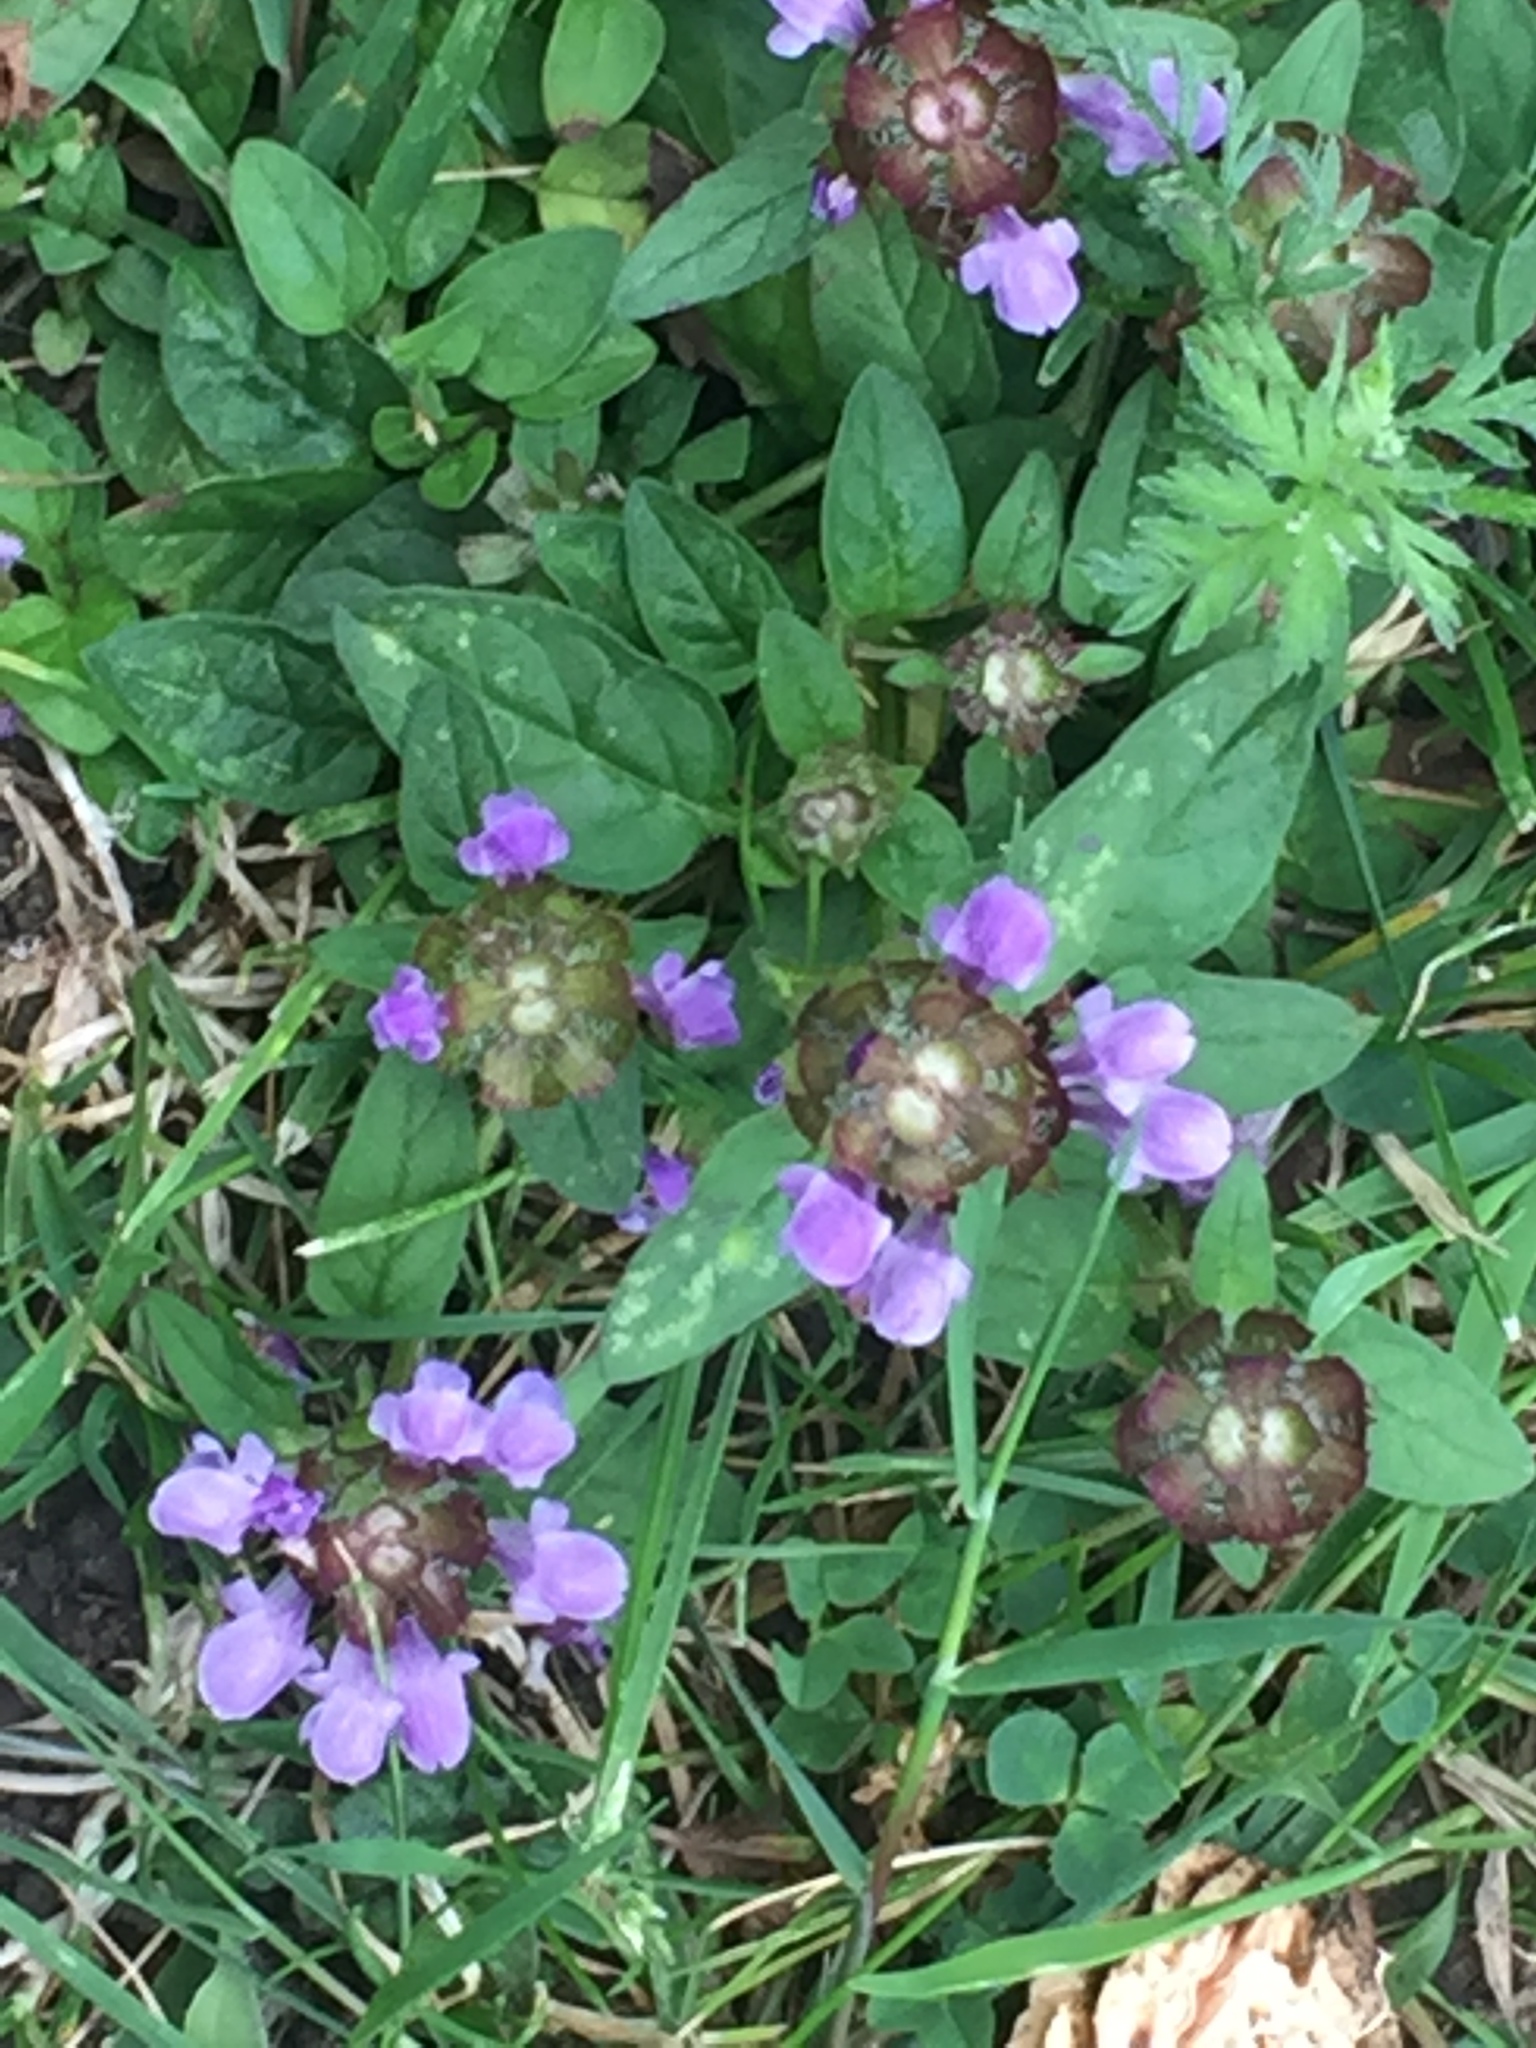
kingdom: Plantae
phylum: Tracheophyta
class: Magnoliopsida
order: Lamiales
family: Lamiaceae
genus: Prunella
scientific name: Prunella vulgaris
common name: Heal-all
